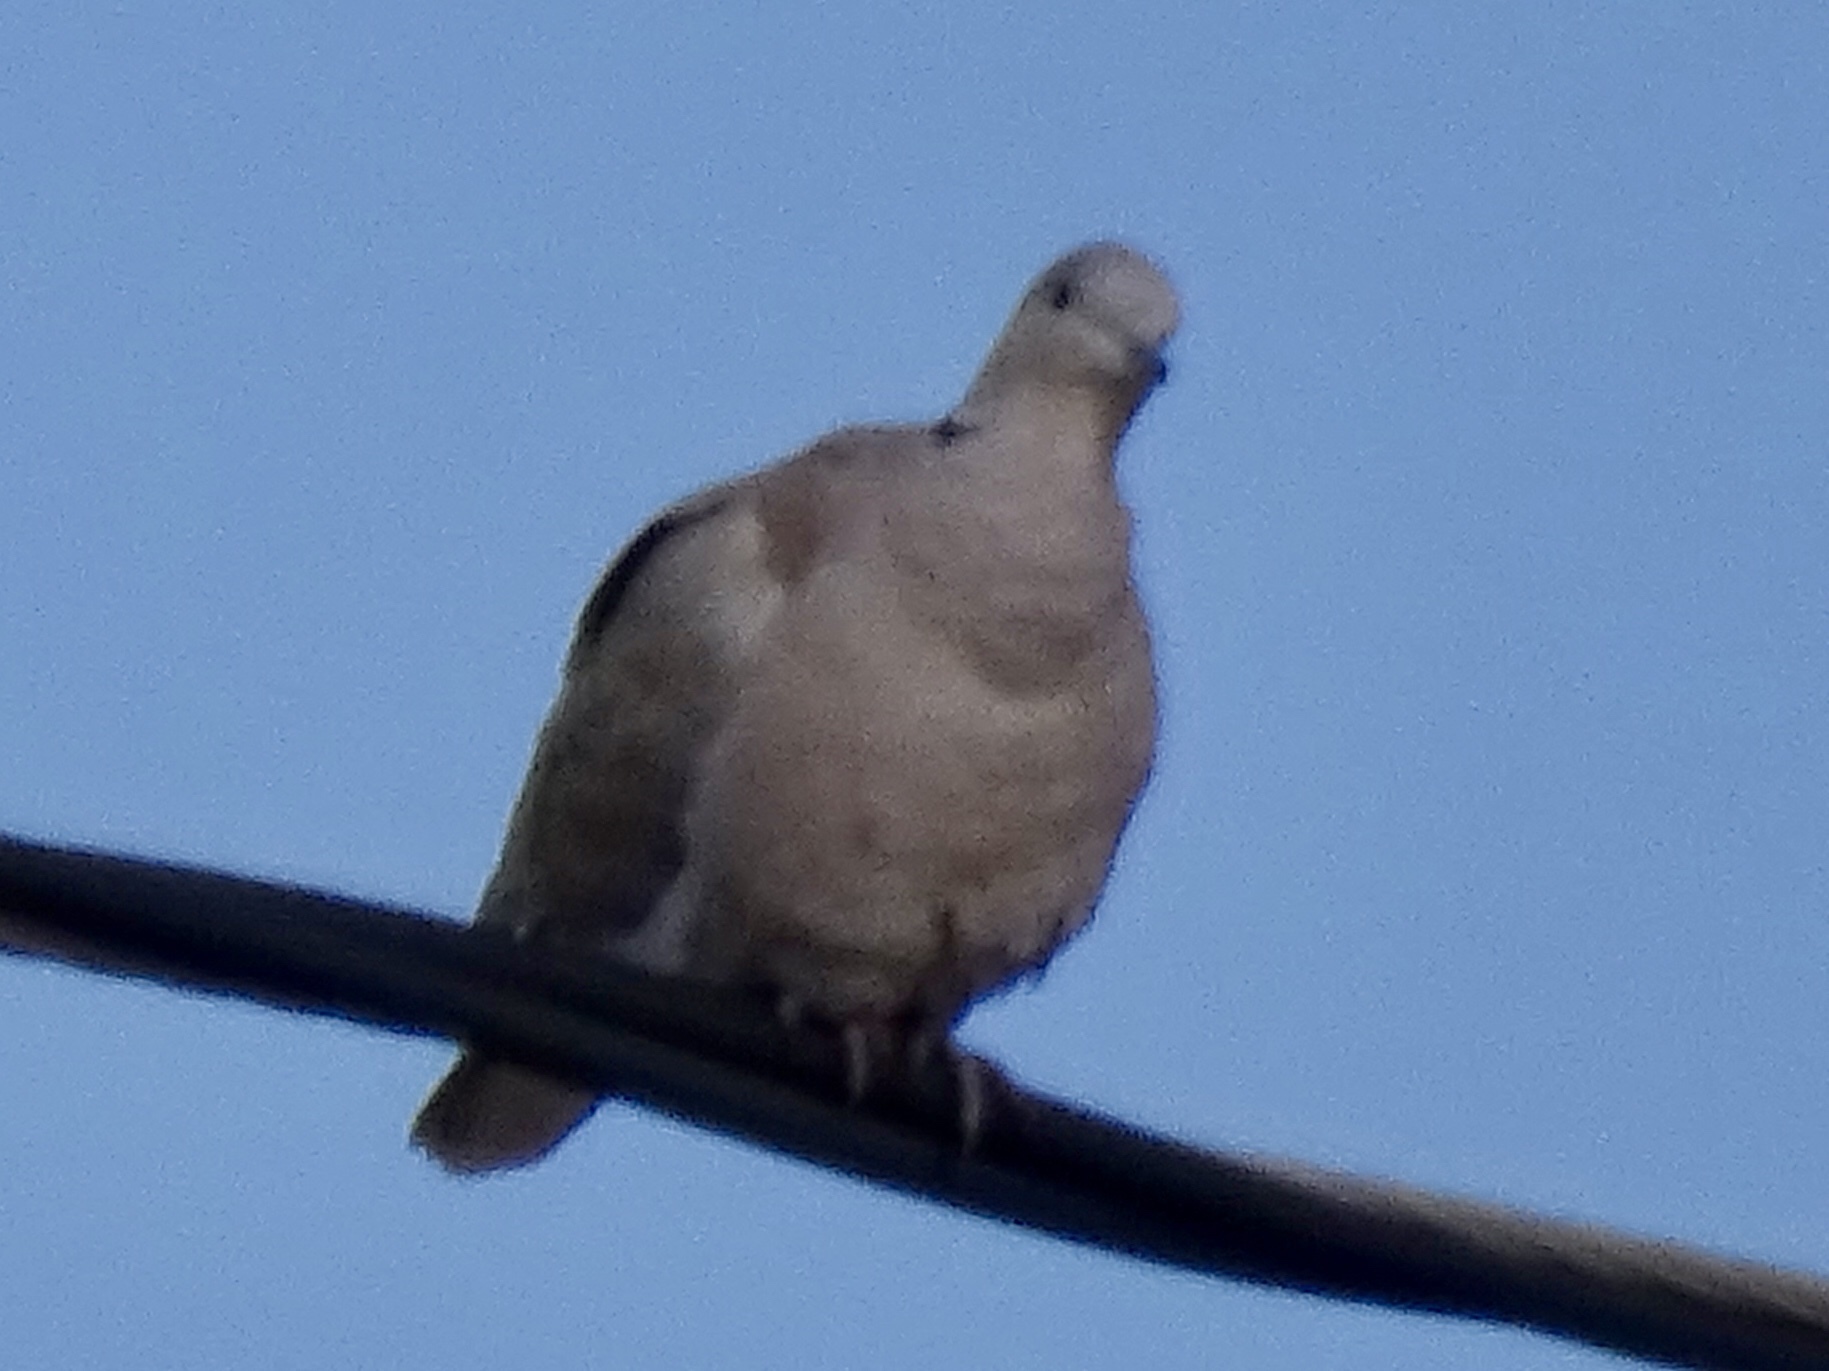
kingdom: Animalia
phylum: Chordata
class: Aves
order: Columbiformes
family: Columbidae
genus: Streptopelia
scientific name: Streptopelia decaocto
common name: Eurasian collared dove
